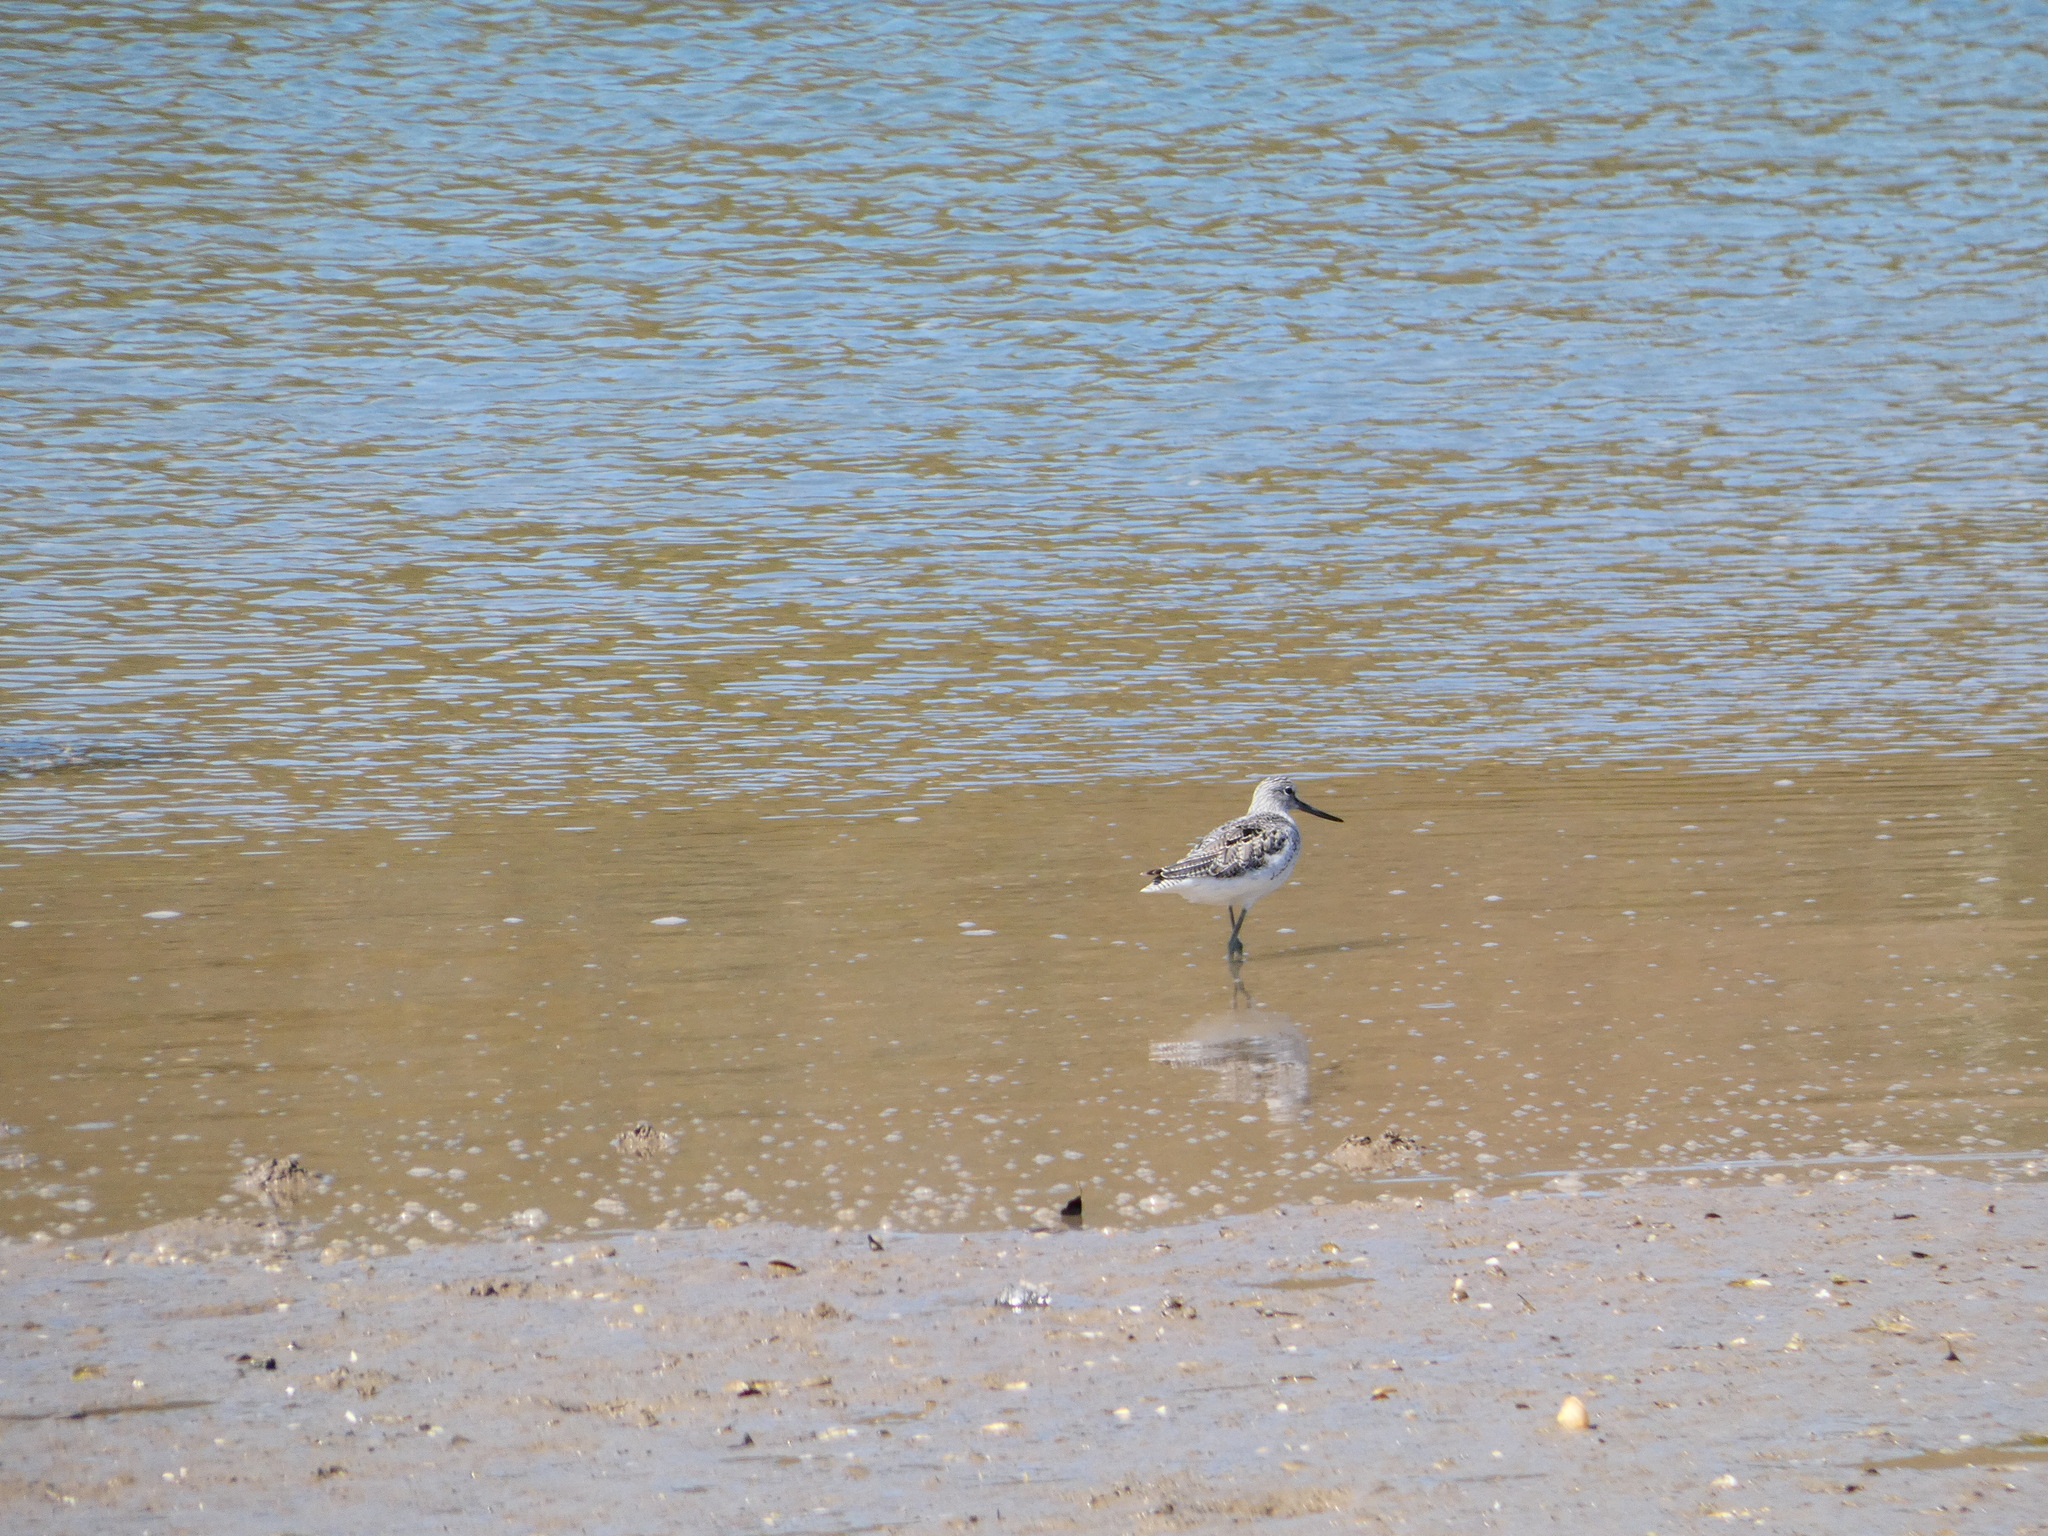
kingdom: Animalia
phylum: Chordata
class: Aves
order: Charadriiformes
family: Scolopacidae
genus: Tringa
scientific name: Tringa nebularia
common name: Common greenshank
